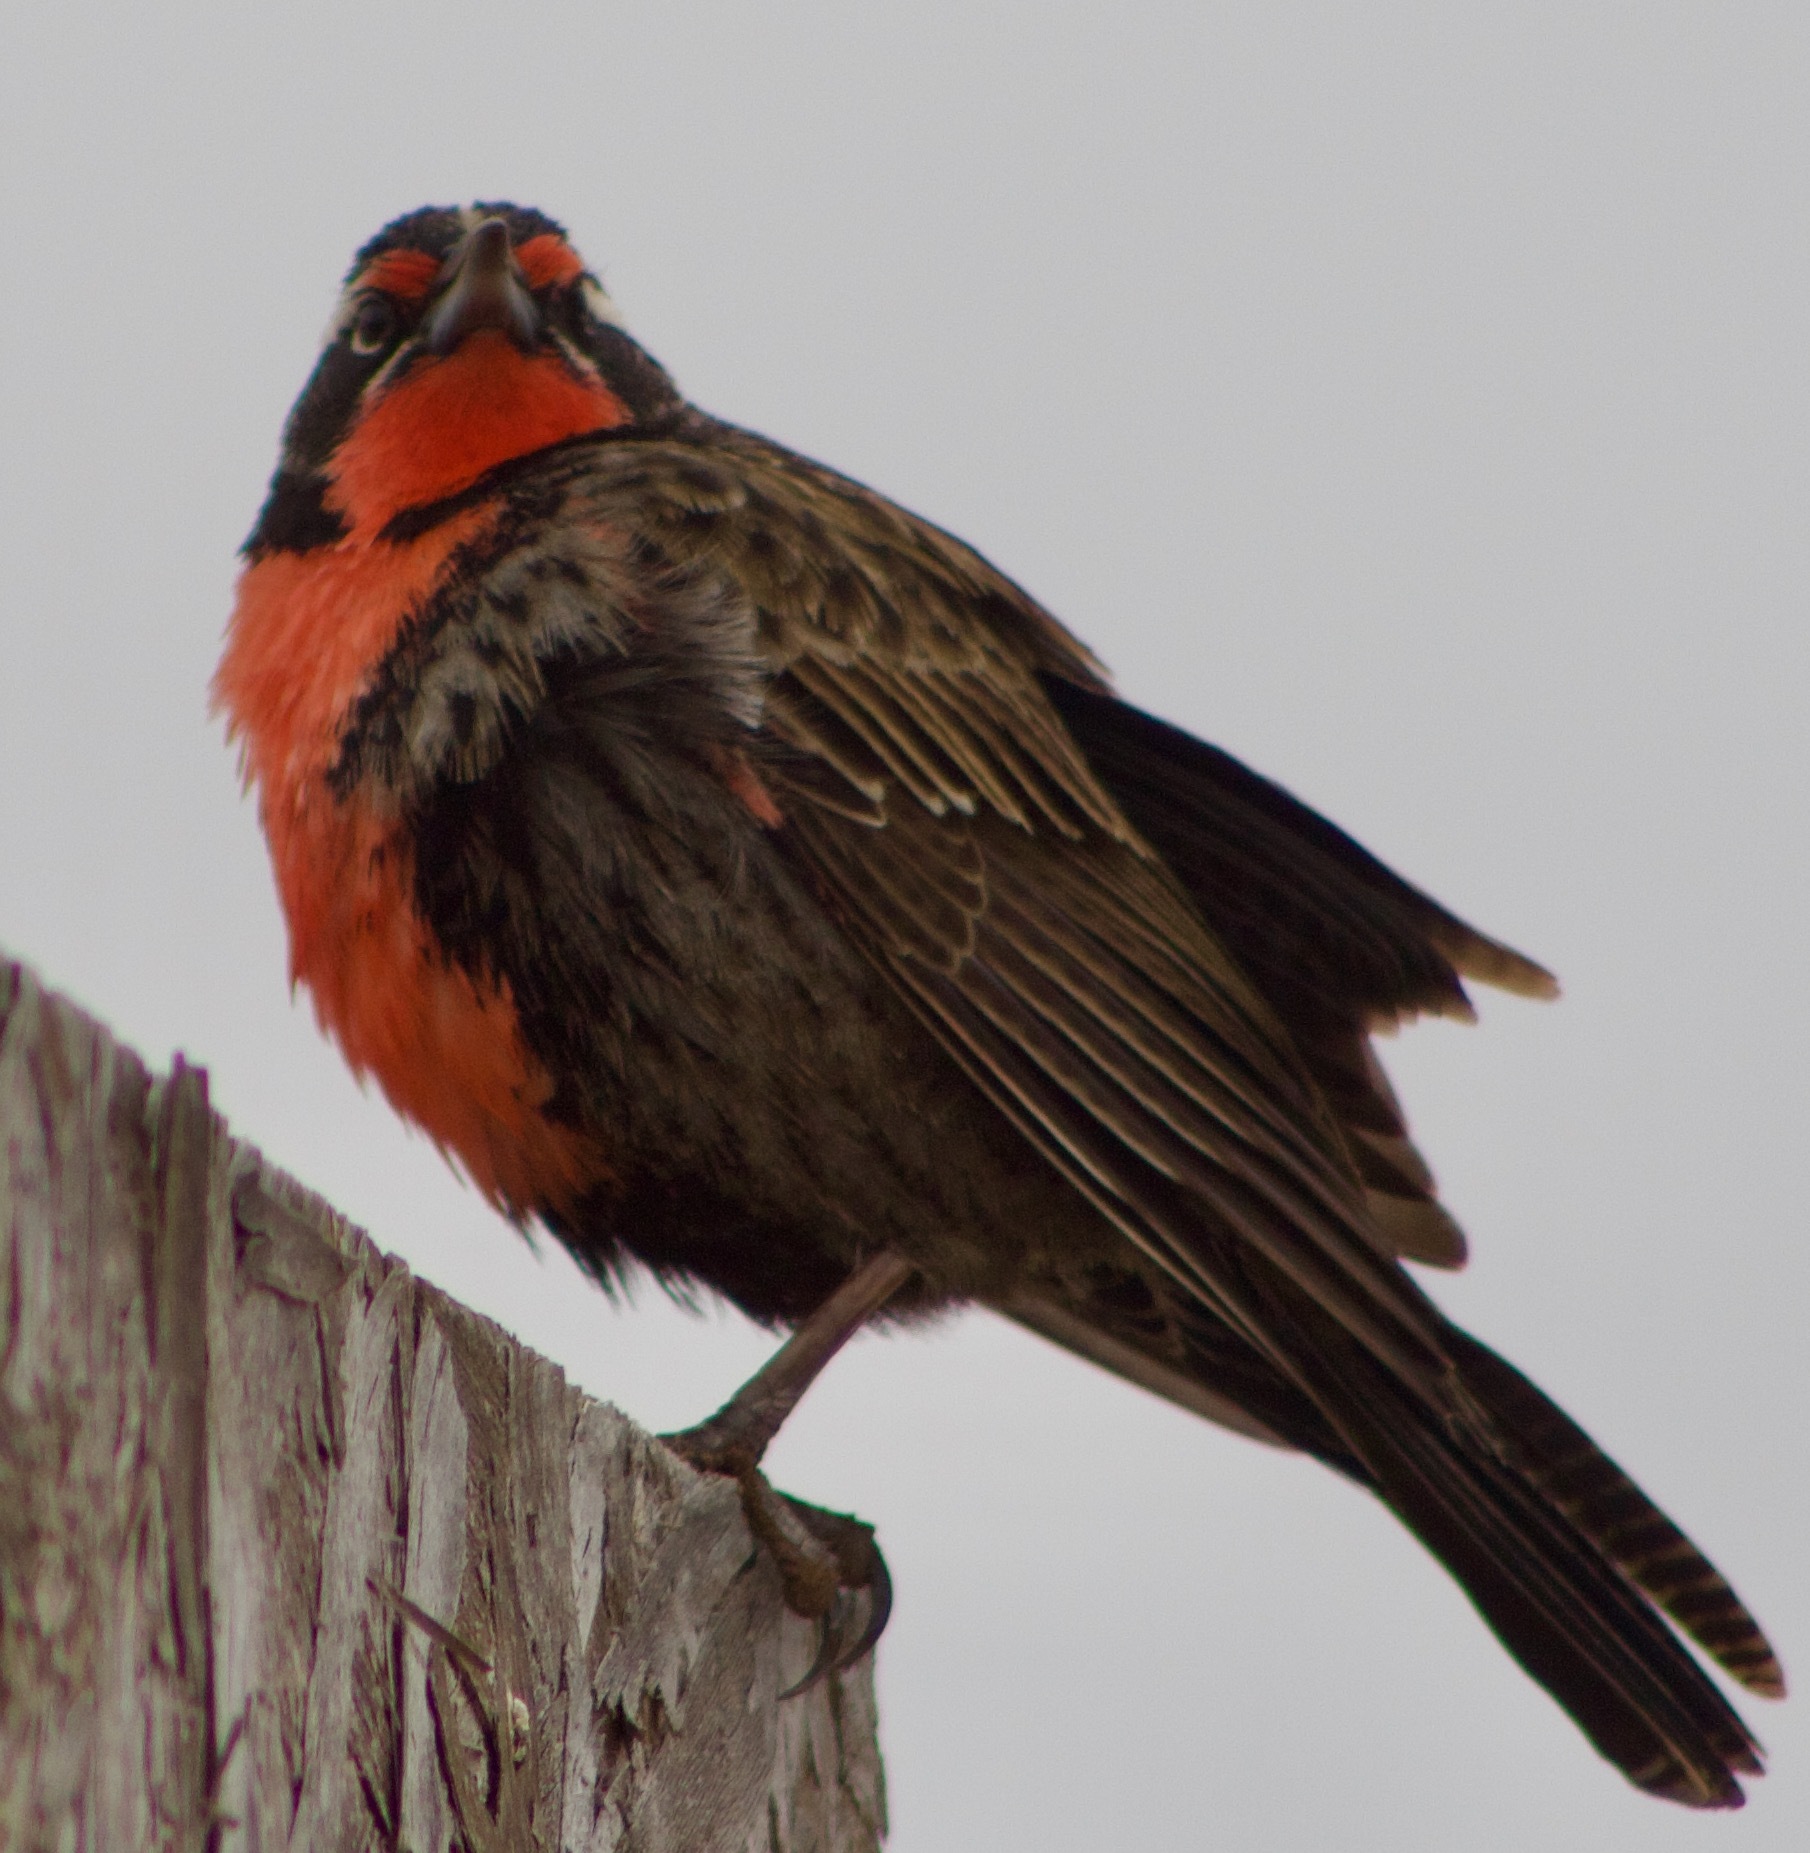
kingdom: Animalia
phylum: Chordata
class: Aves
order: Passeriformes
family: Icteridae
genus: Sturnella
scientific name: Sturnella loyca
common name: Long-tailed meadowlark
